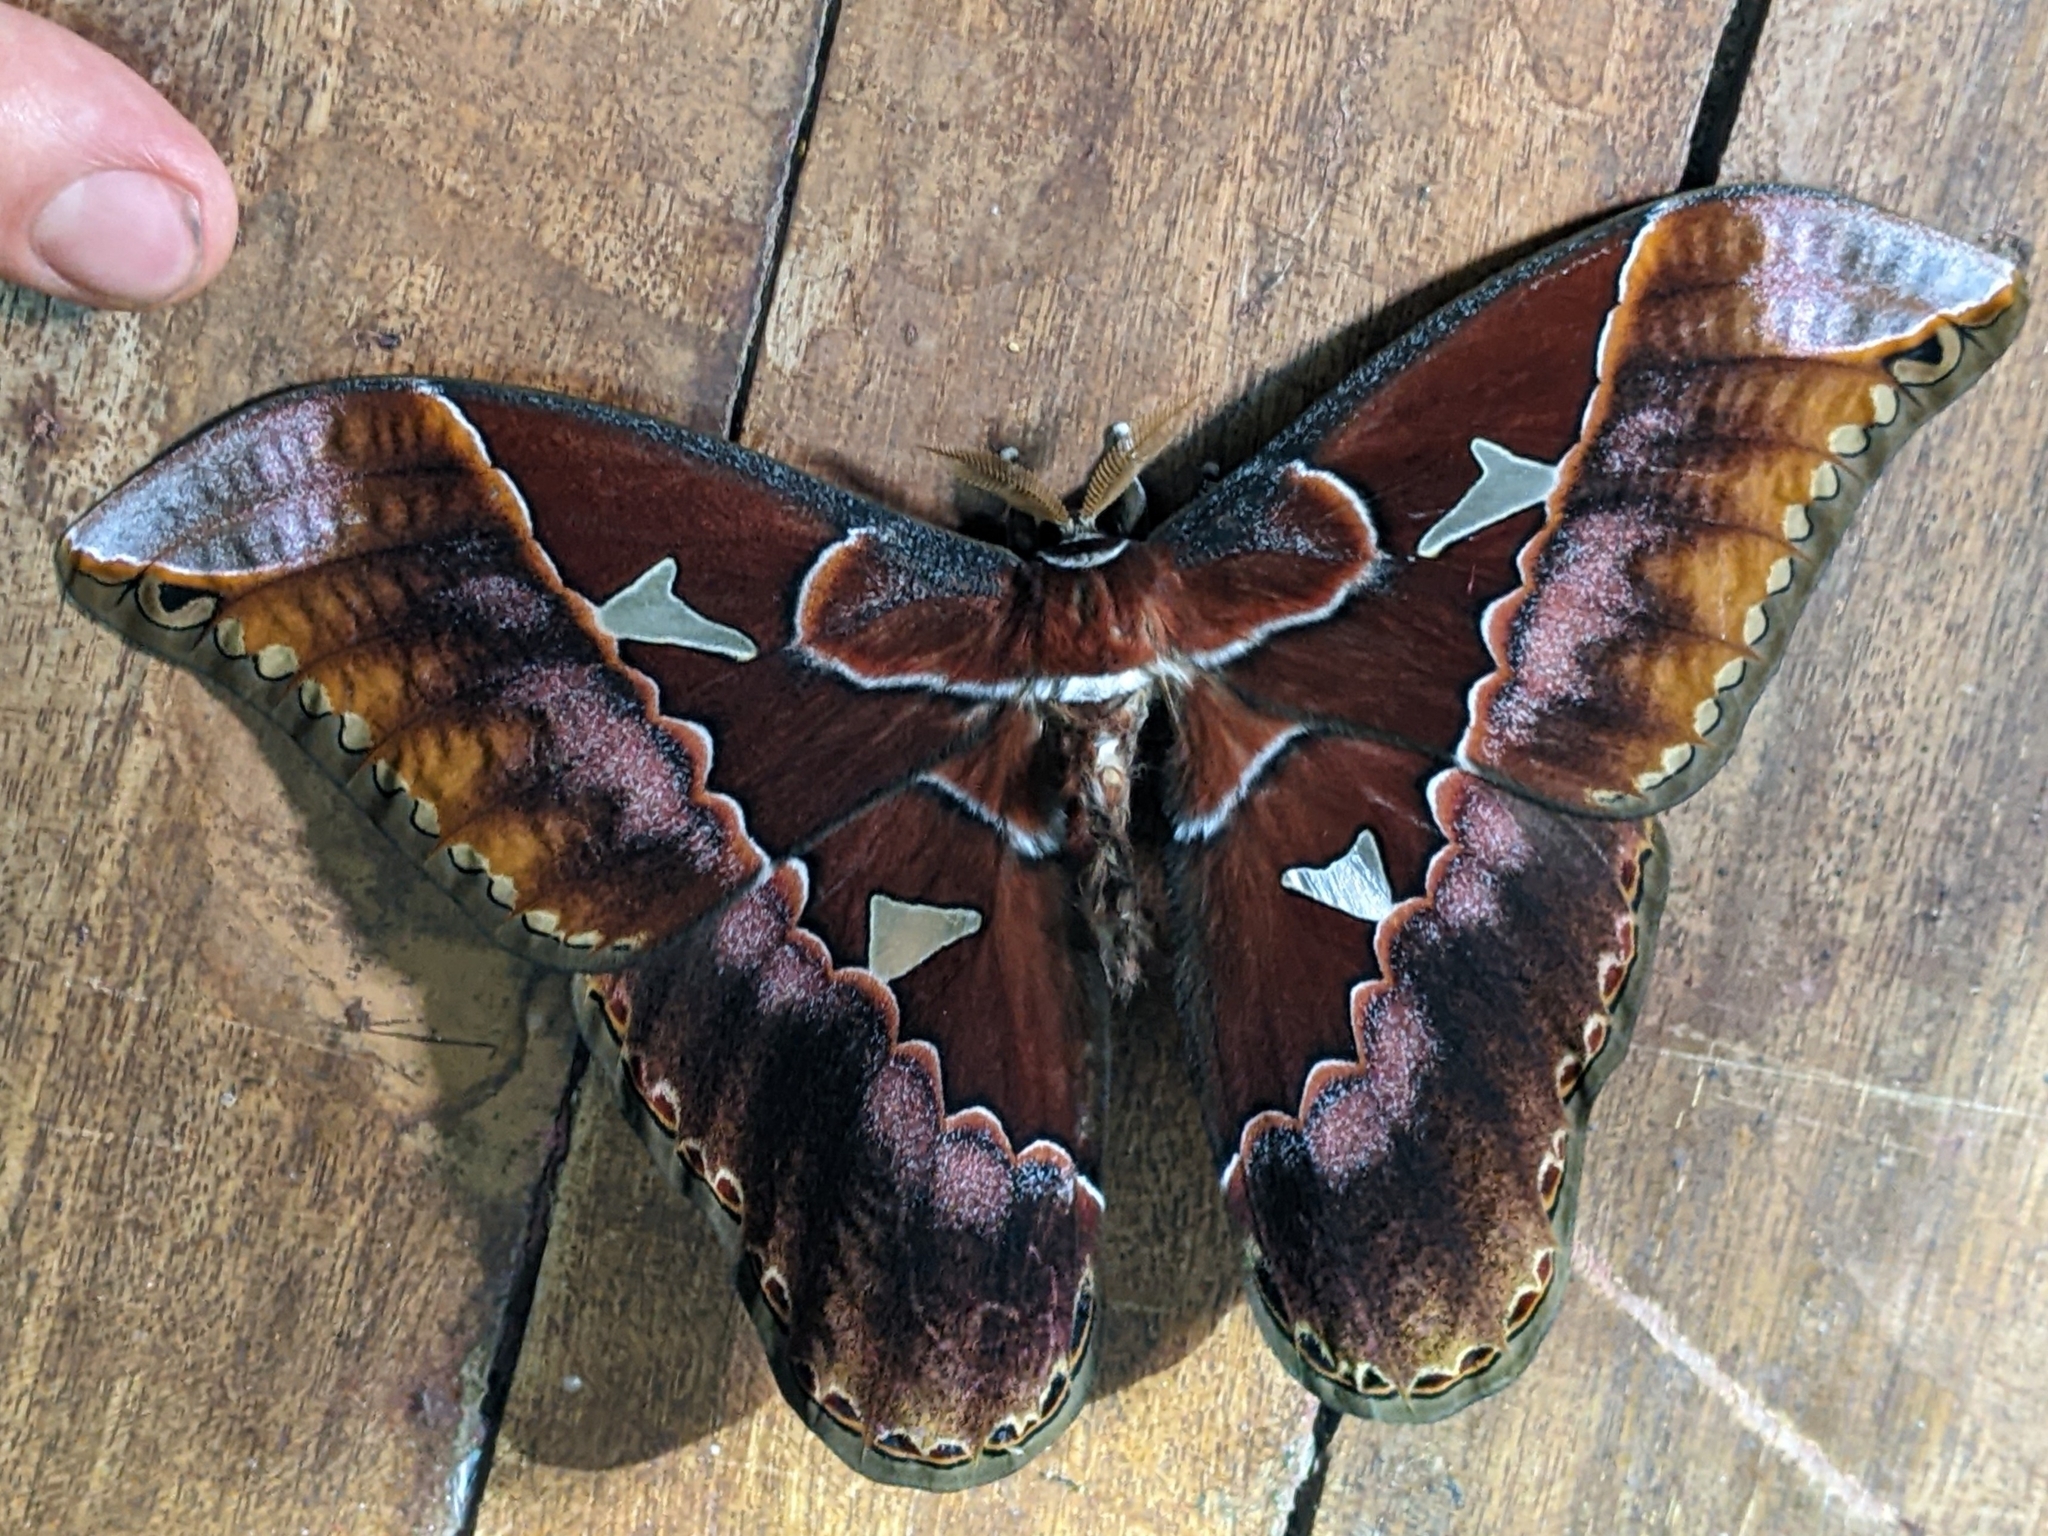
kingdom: Animalia
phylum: Arthropoda
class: Insecta
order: Lepidoptera
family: Saturniidae
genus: Rothschildia
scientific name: Rothschildia orizaba
